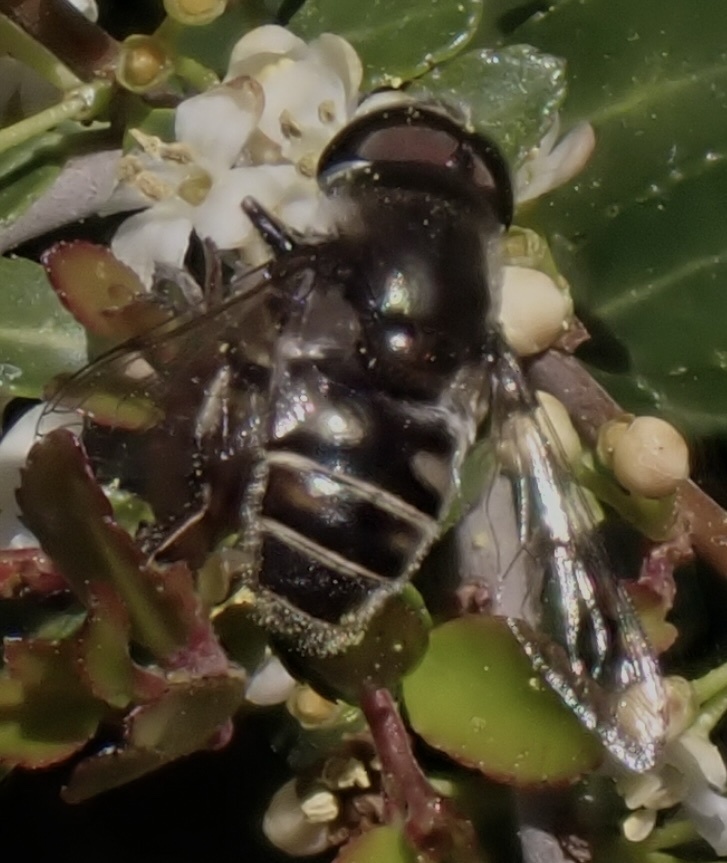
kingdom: Animalia
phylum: Arthropoda
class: Insecta
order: Diptera
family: Syrphidae
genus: Eristalis
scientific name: Eristalis dimidiata
